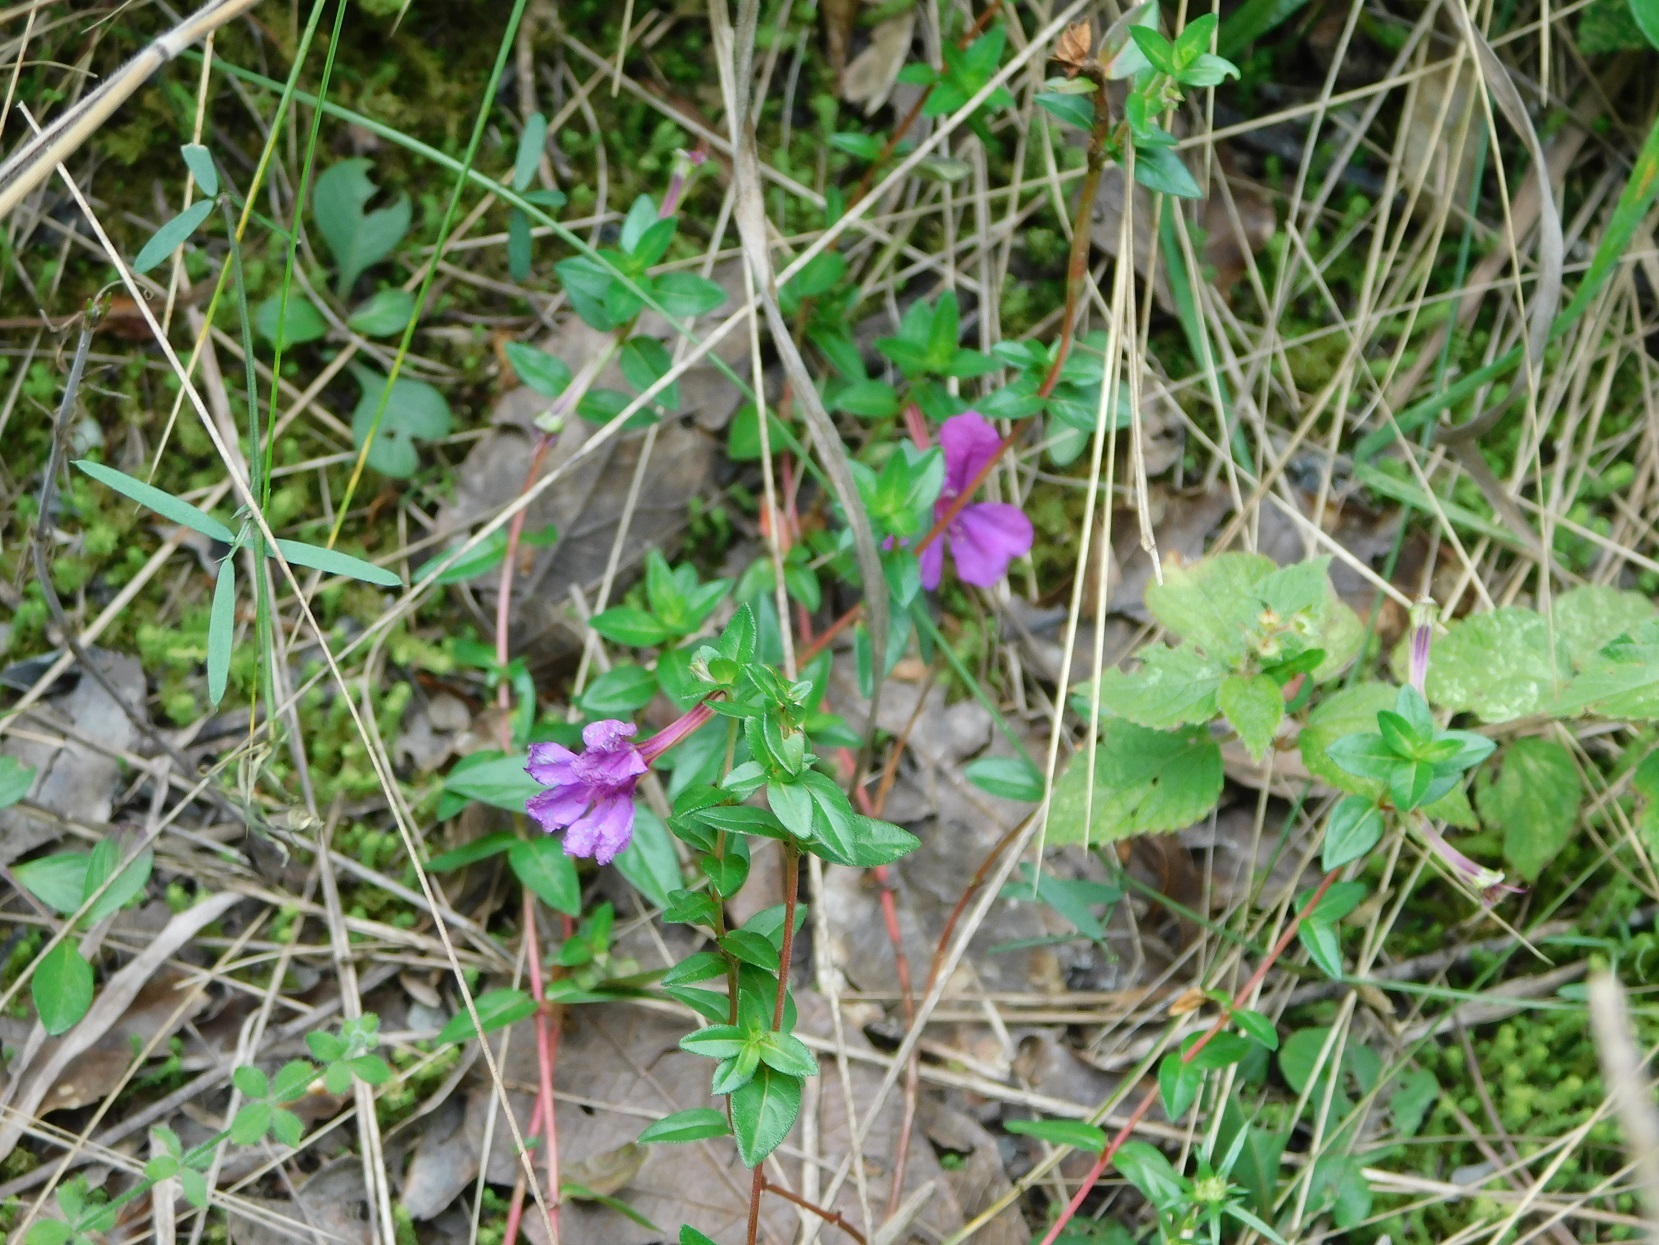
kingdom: Plantae
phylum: Tracheophyta
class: Magnoliopsida
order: Myrtales
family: Lythraceae
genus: Cuphea
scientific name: Cuphea aequipetala
